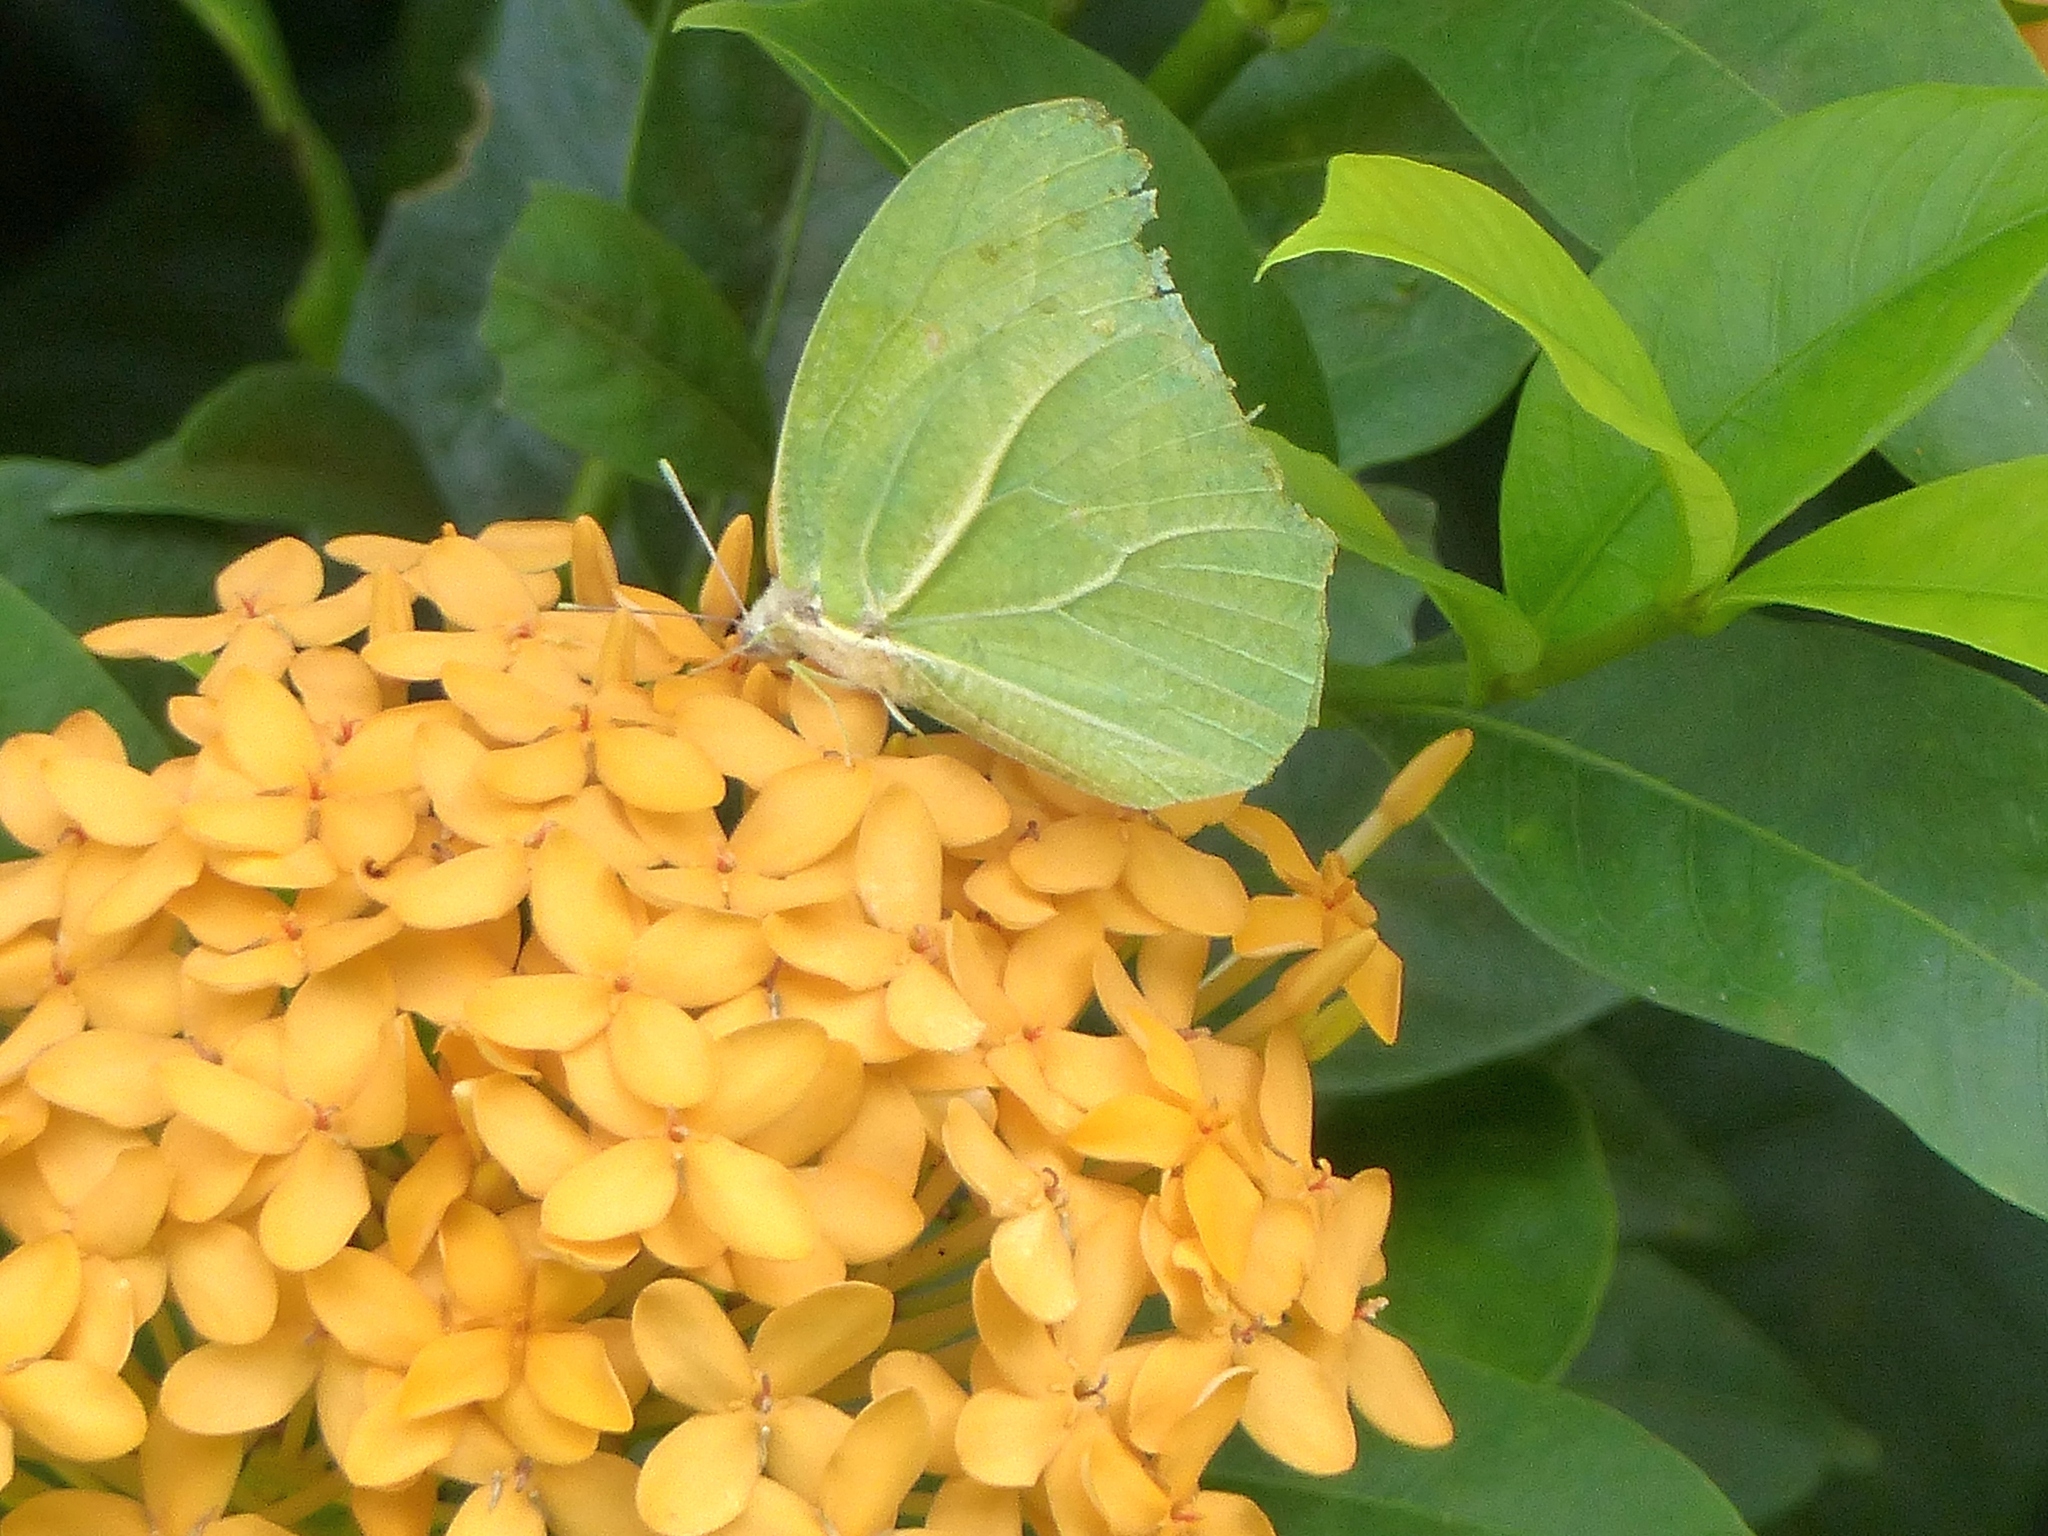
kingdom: Animalia
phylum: Arthropoda
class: Insecta
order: Lepidoptera
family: Pieridae
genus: Anteos
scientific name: Anteos clorinde
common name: White angled sulphur
